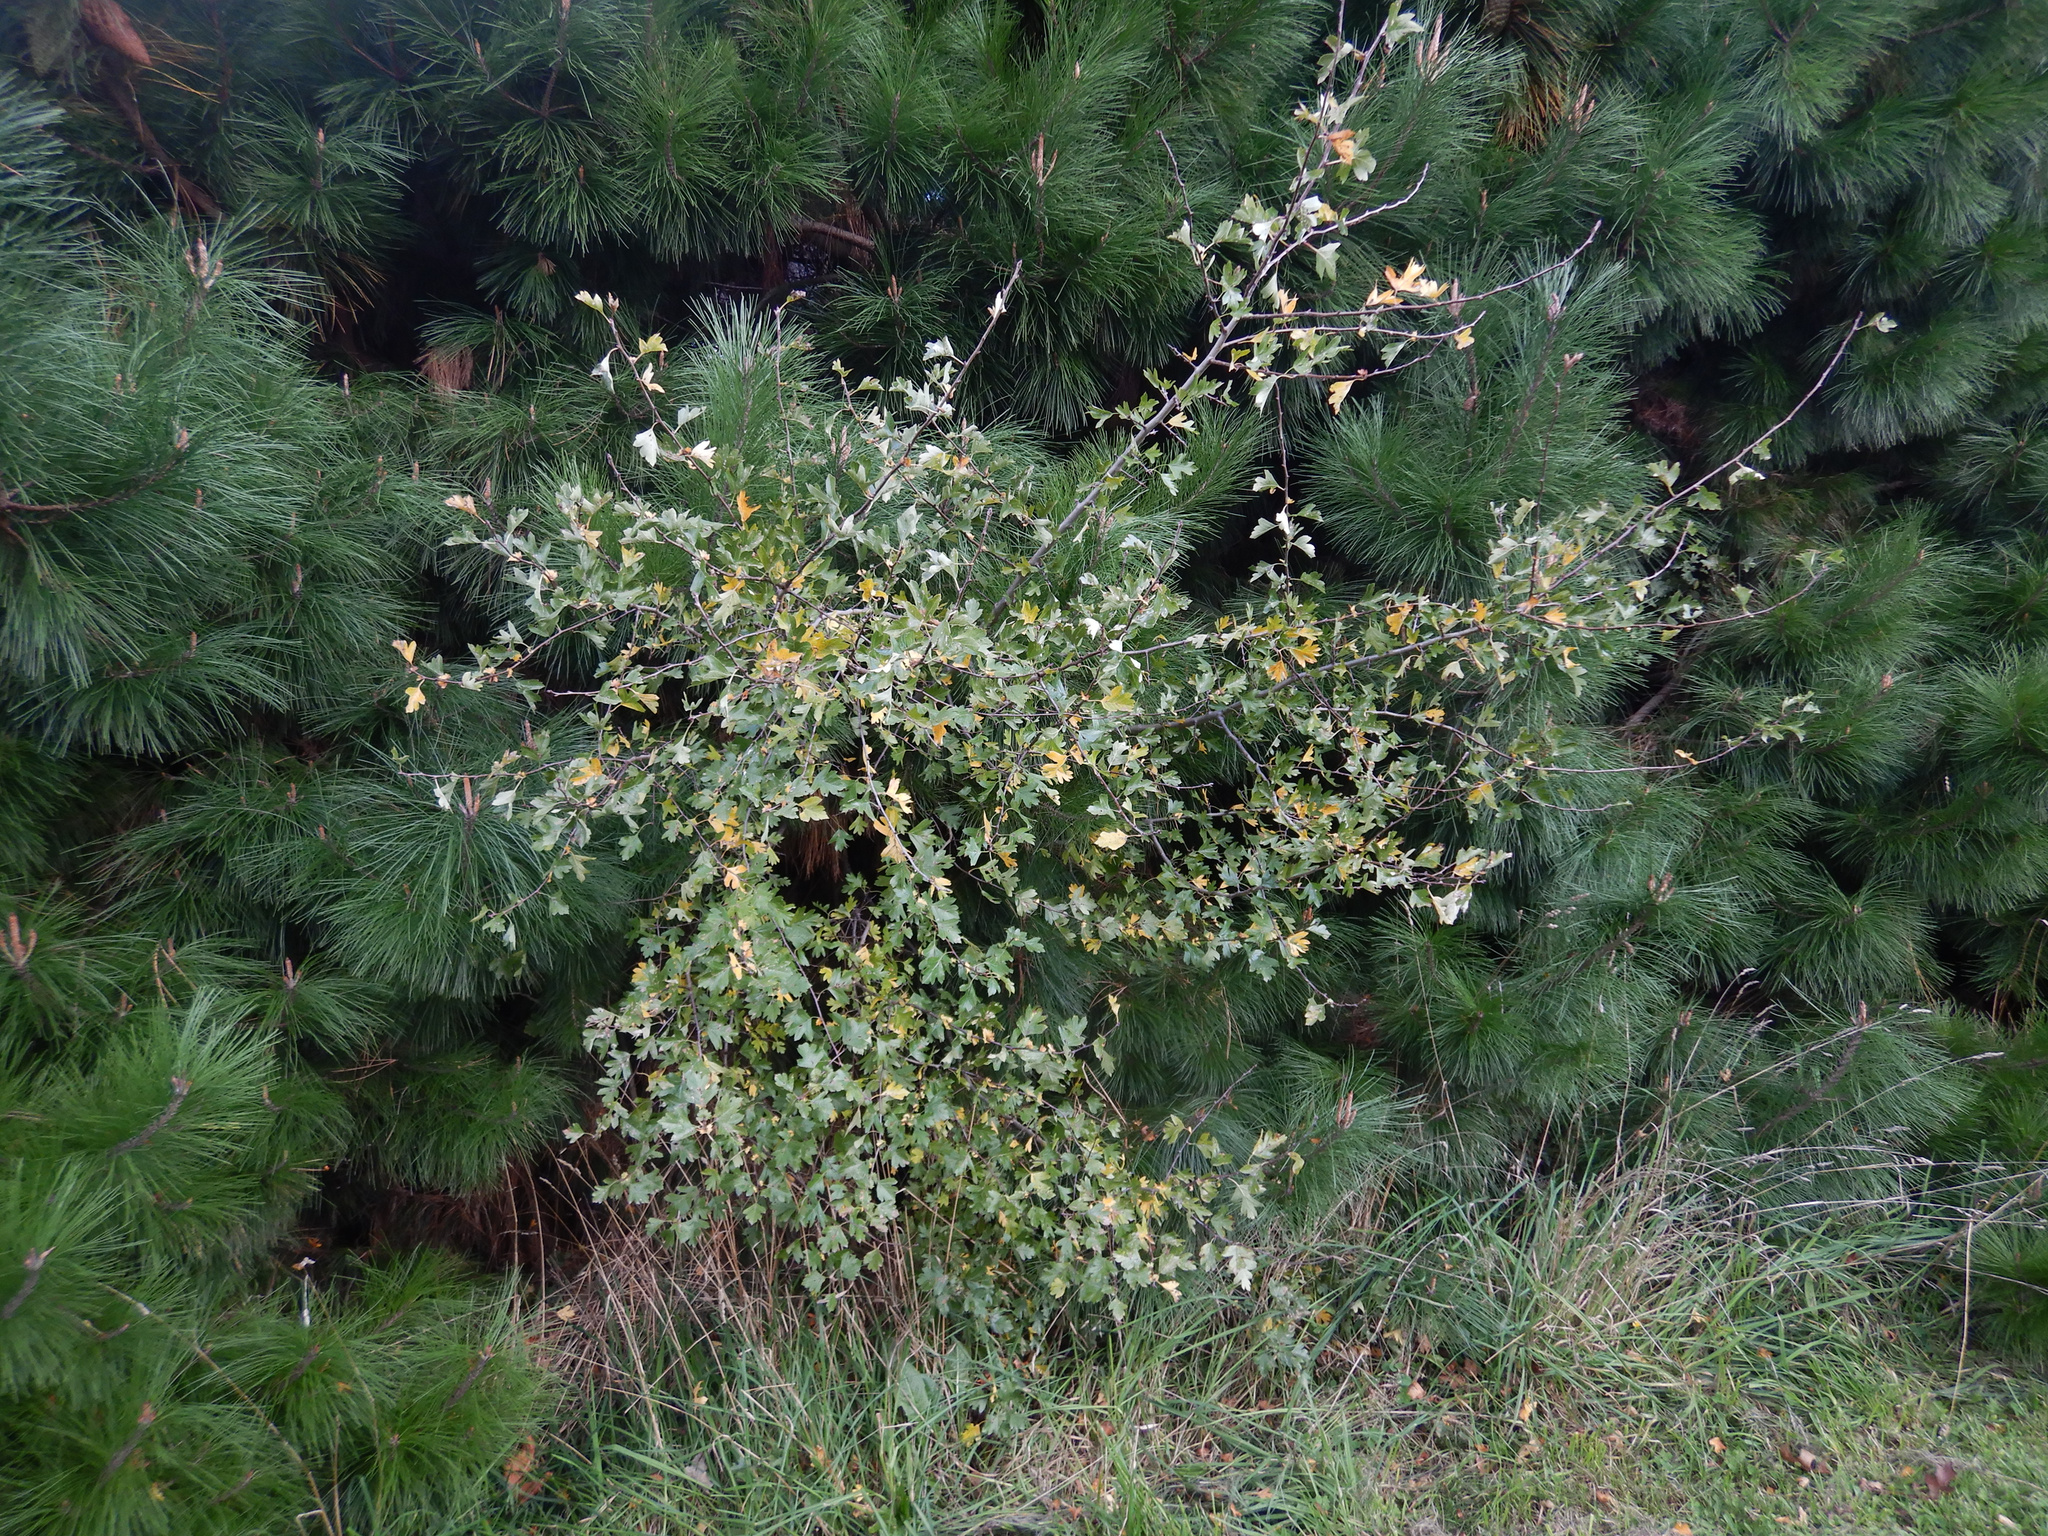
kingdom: Plantae
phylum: Tracheophyta
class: Magnoliopsida
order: Rosales
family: Rosaceae
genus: Crataegus
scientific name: Crataegus monogyna
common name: Hawthorn
